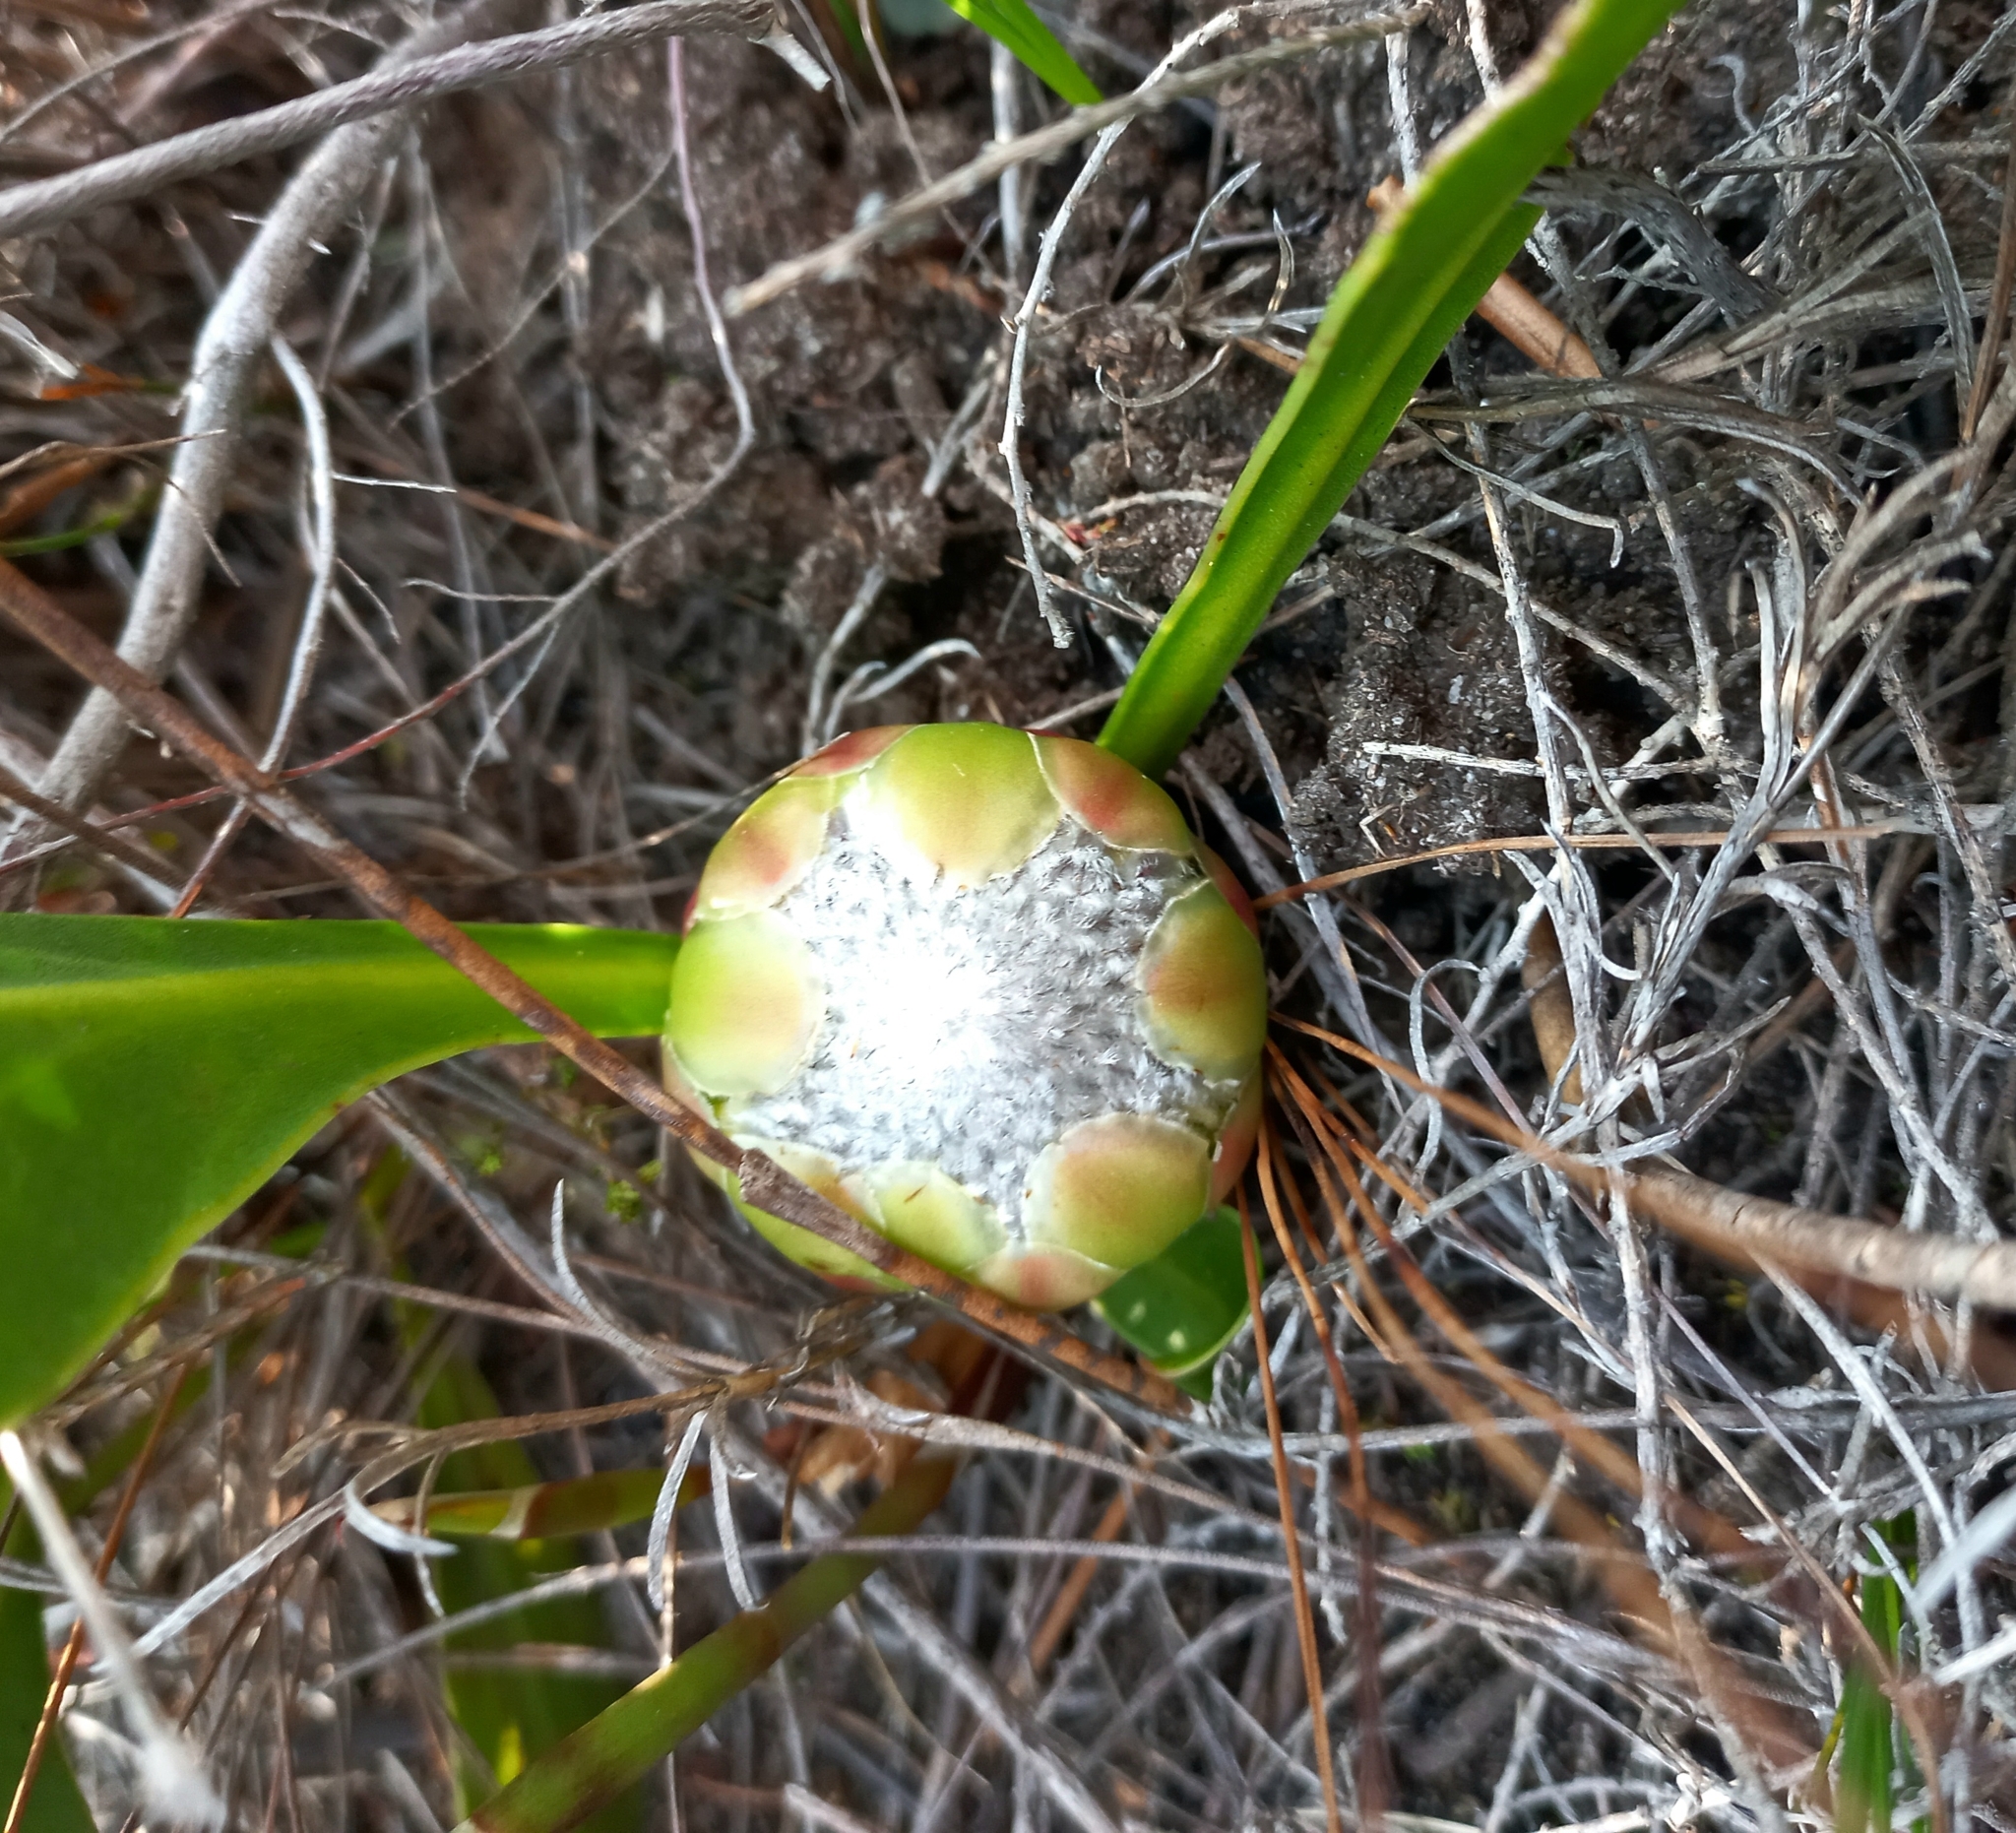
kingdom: Plantae
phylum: Tracheophyta
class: Magnoliopsida
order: Proteales
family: Proteaceae
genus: Protea
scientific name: Protea acaulos
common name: Common ground sugarbush
